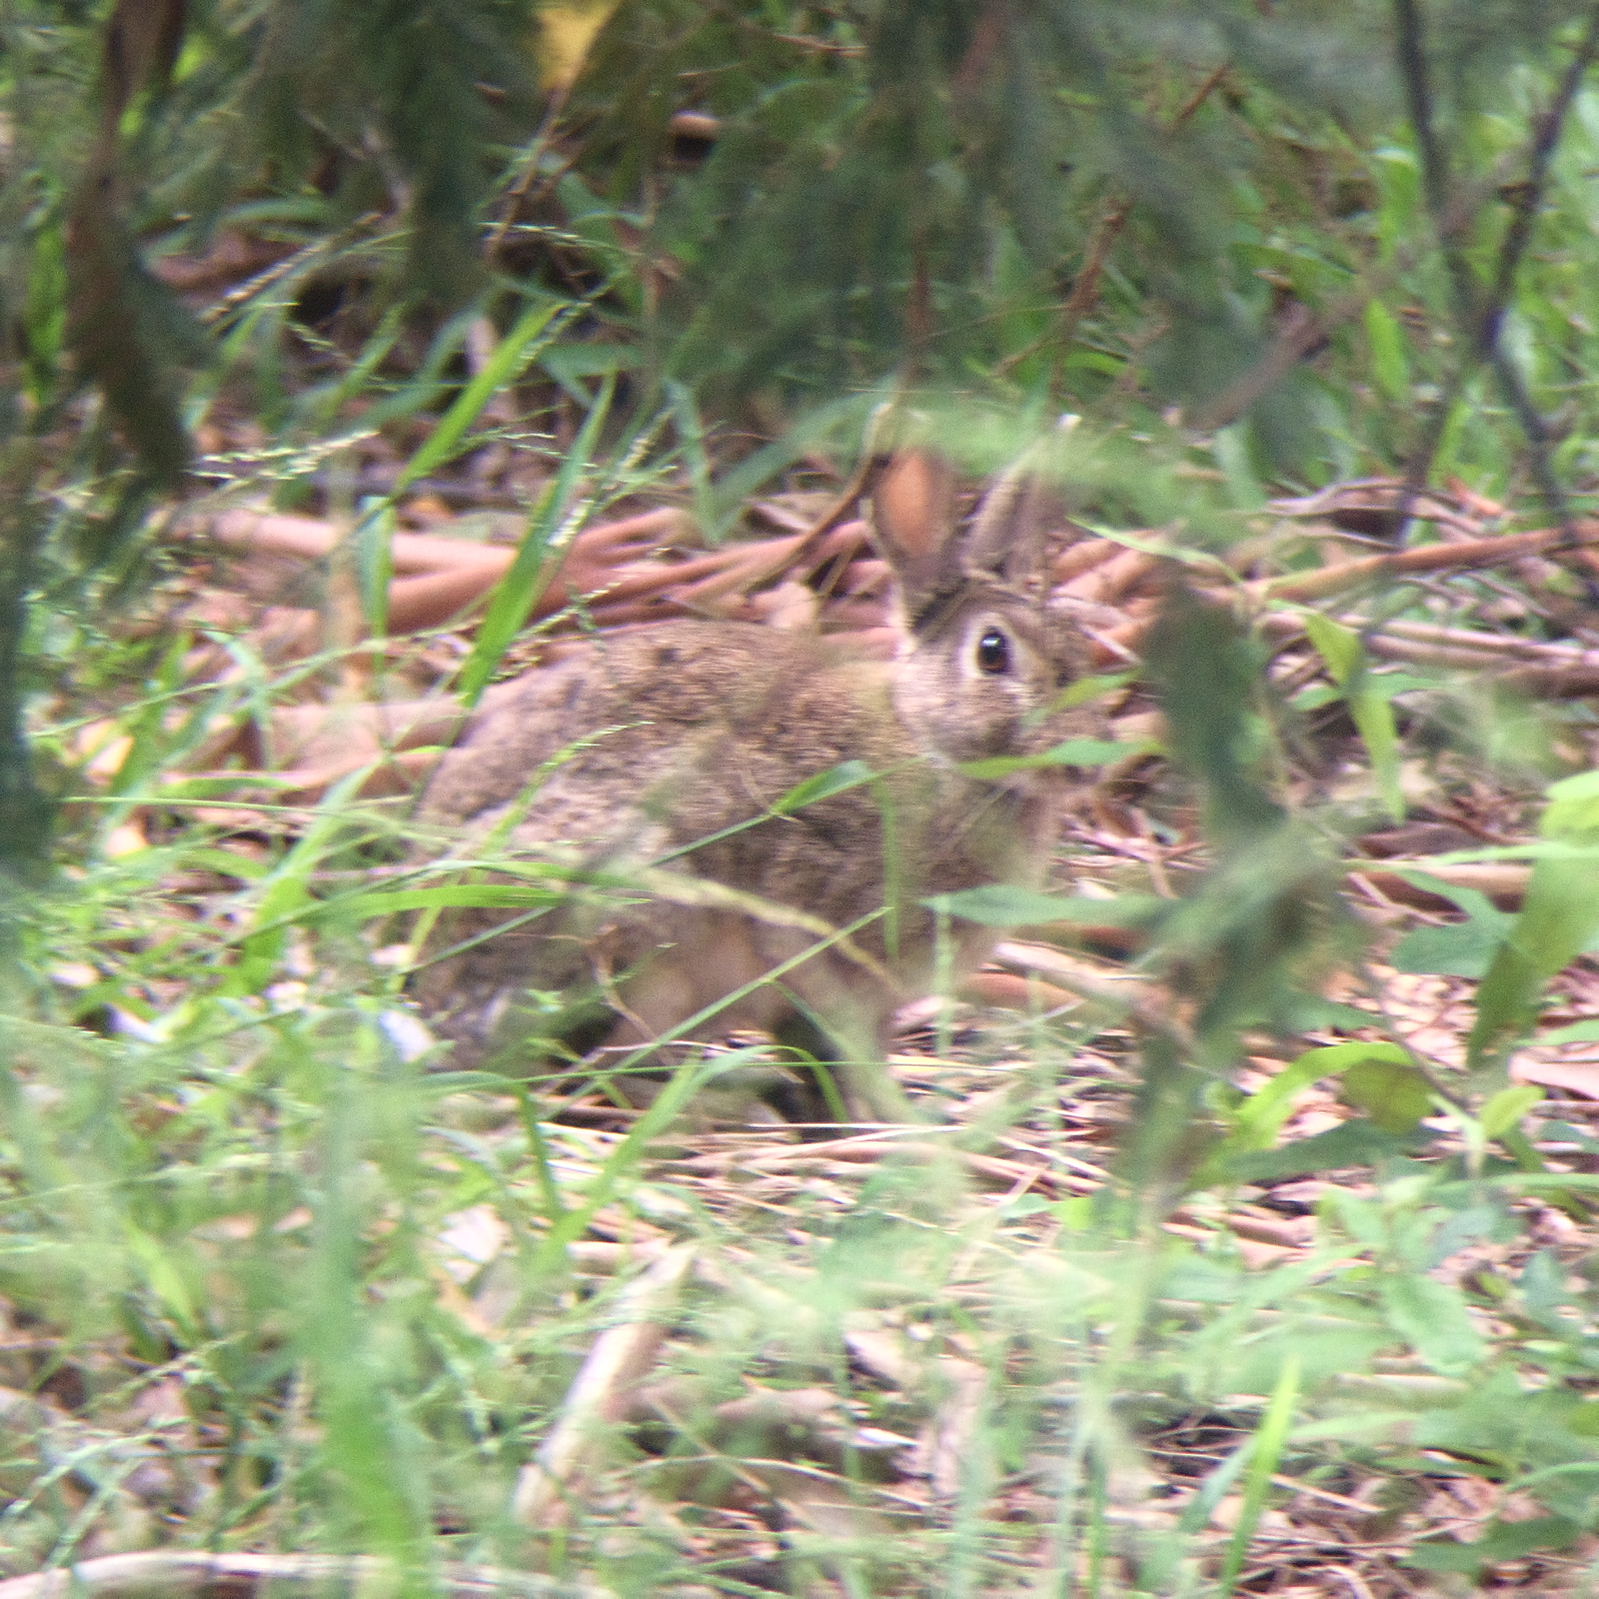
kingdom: Animalia
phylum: Chordata
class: Mammalia
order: Lagomorpha
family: Leporidae
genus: Oryctolagus
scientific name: Oryctolagus cuniculus
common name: European rabbit
